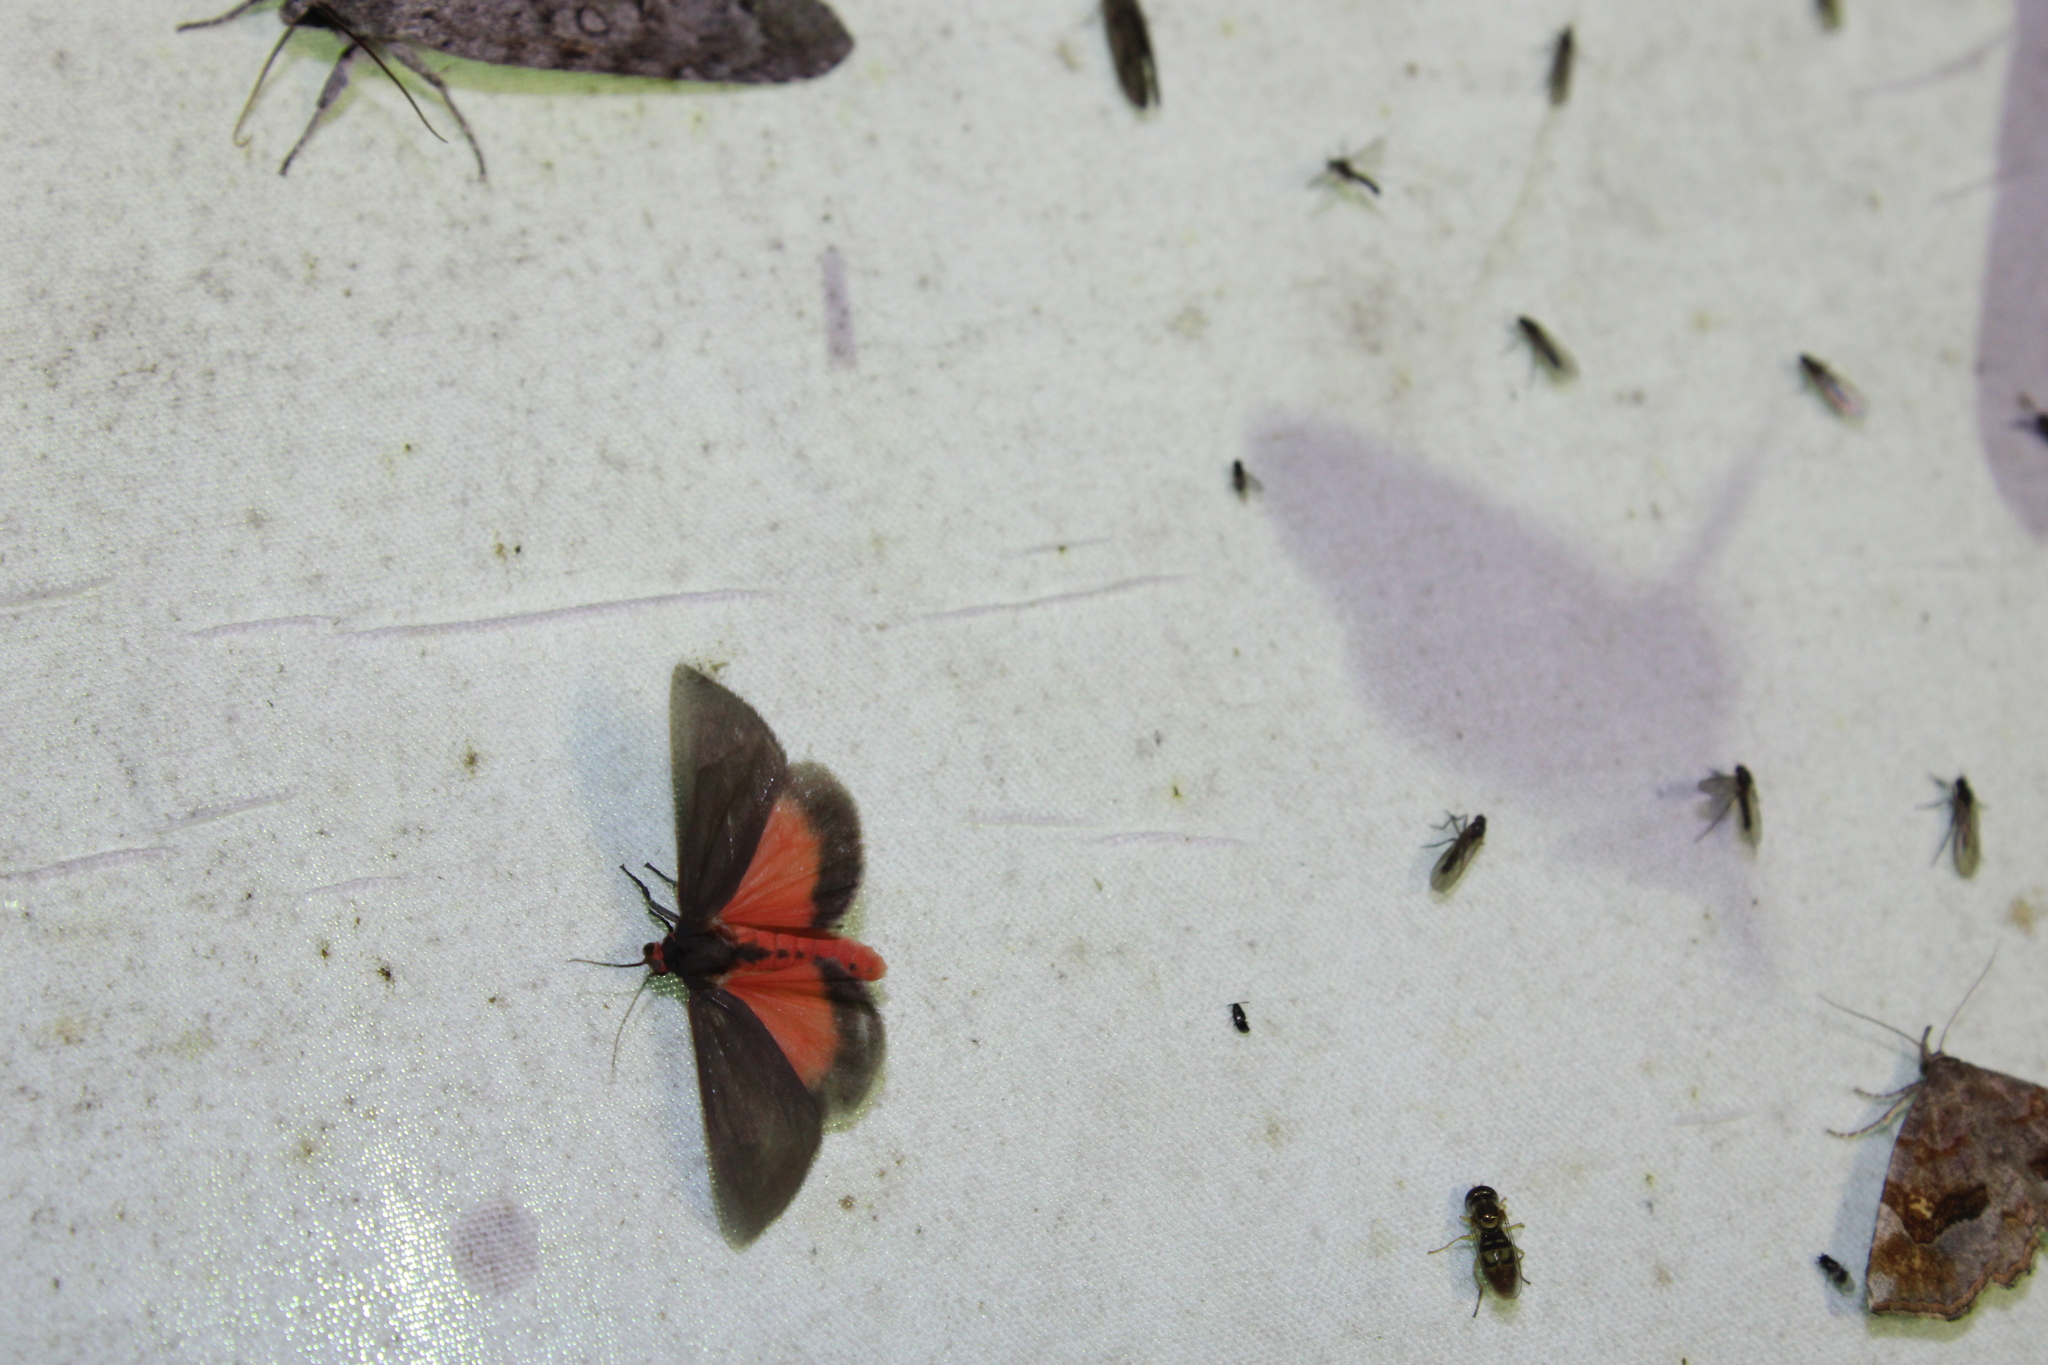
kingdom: Animalia
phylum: Arthropoda
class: Insecta
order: Lepidoptera
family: Erebidae
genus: Virbia
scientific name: Virbia laeta
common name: Joyful holomelina moth
